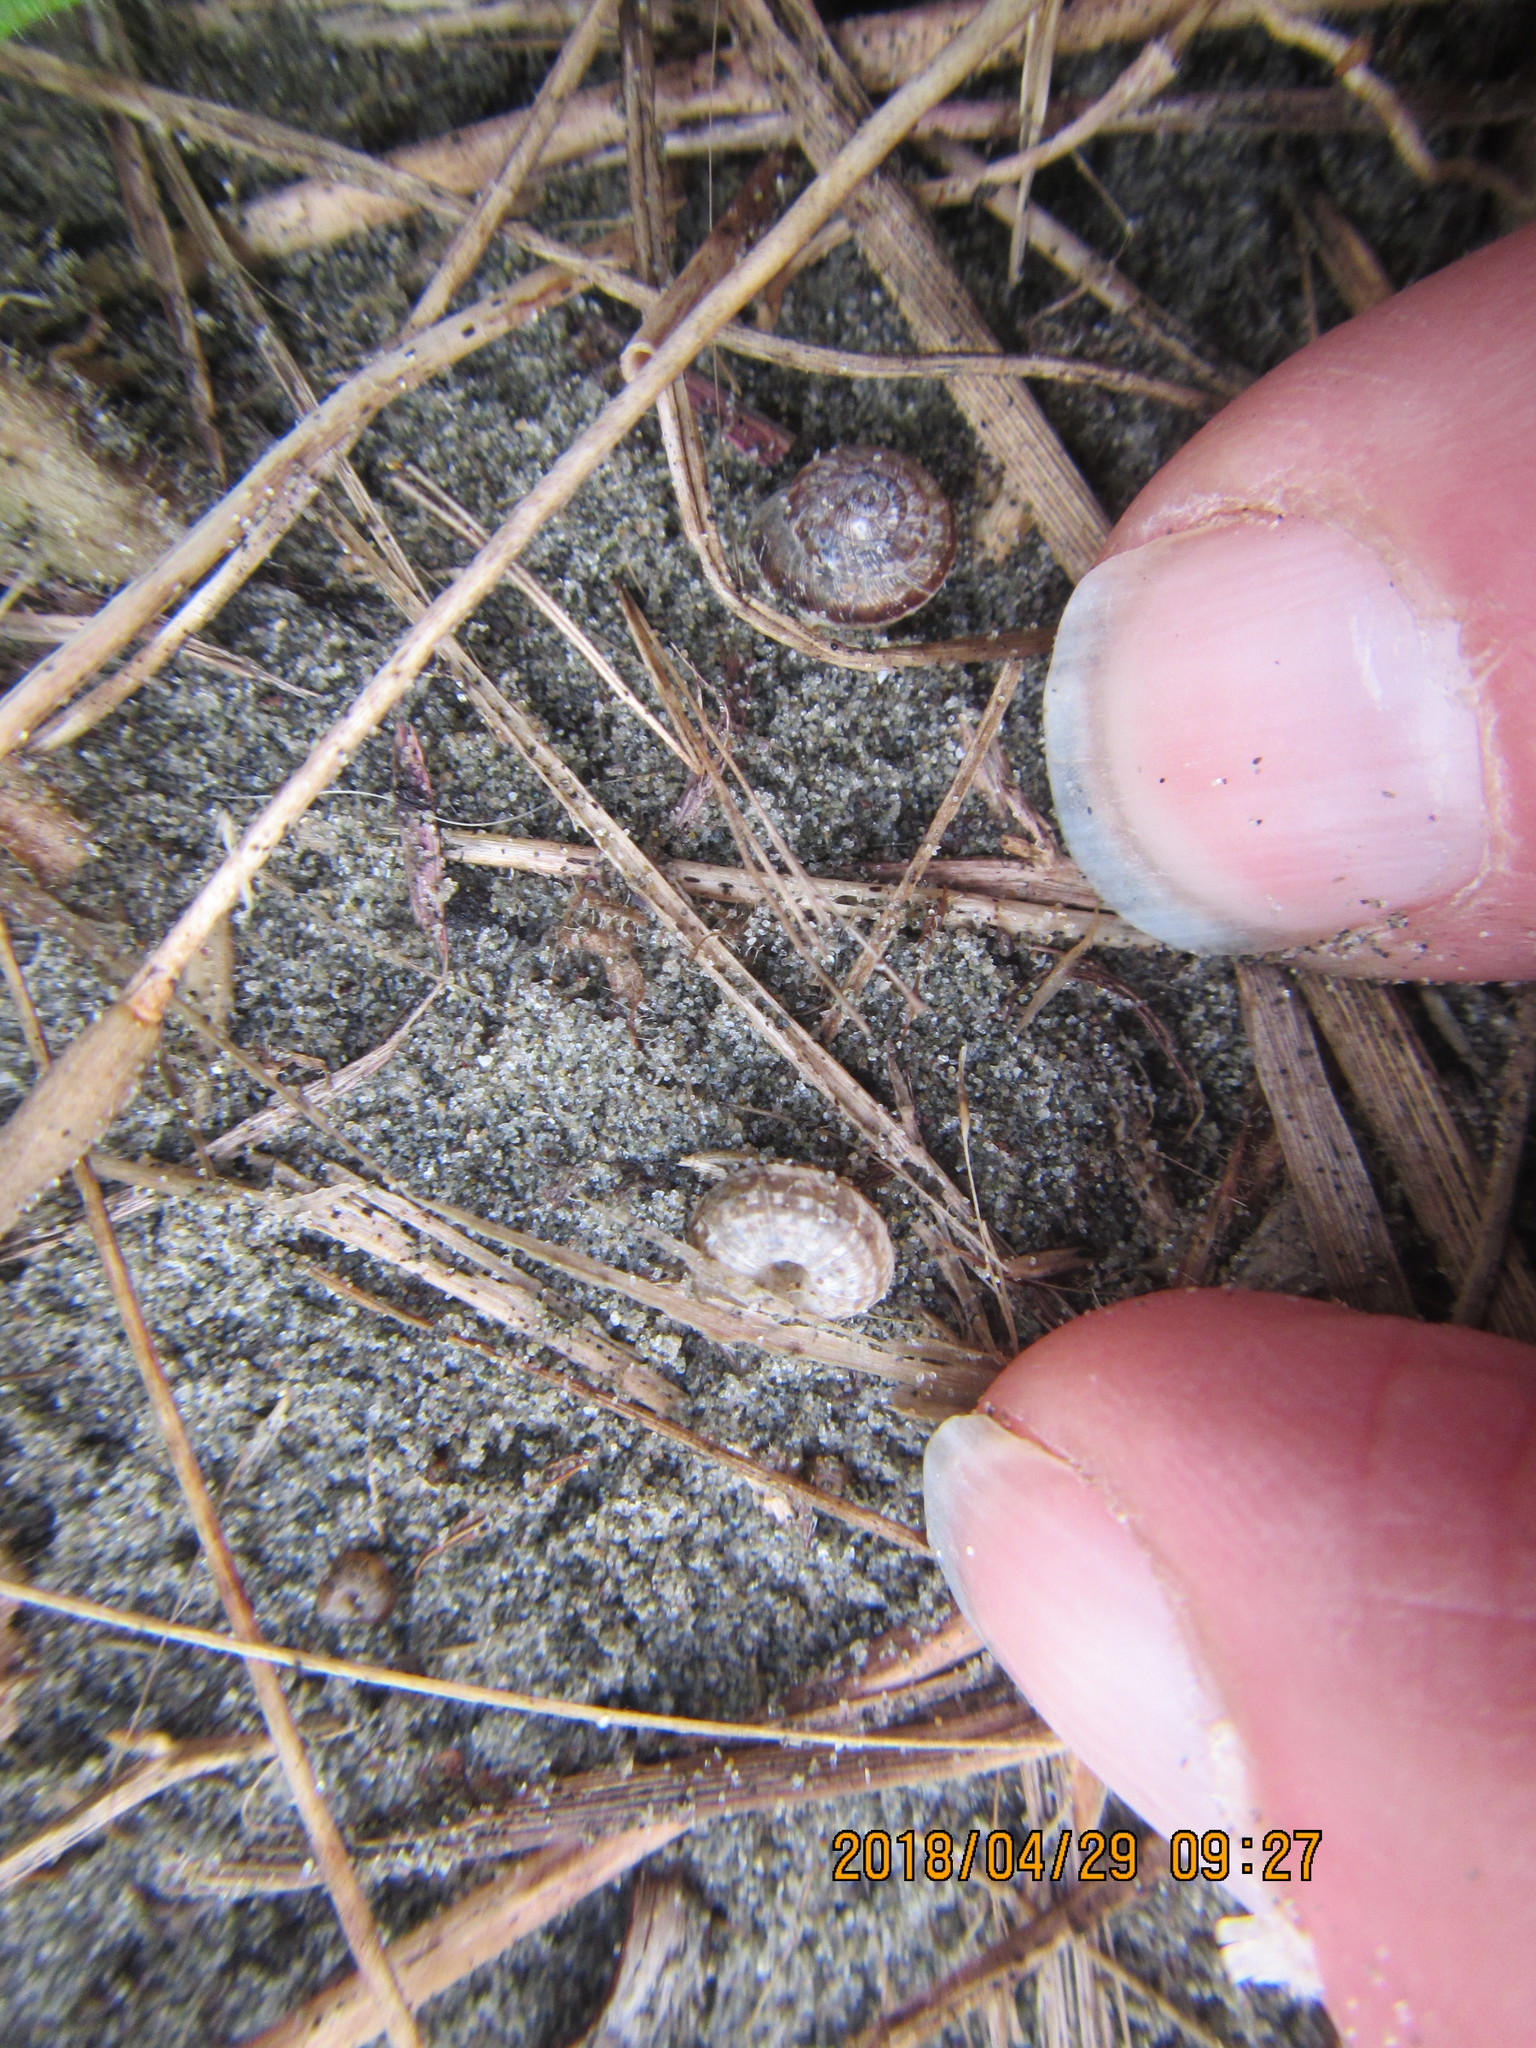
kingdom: Animalia
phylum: Mollusca
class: Gastropoda
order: Stylommatophora
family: Geomitridae
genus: Xeroplexa
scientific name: Xeroplexa intersecta
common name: Wrinkled snail
